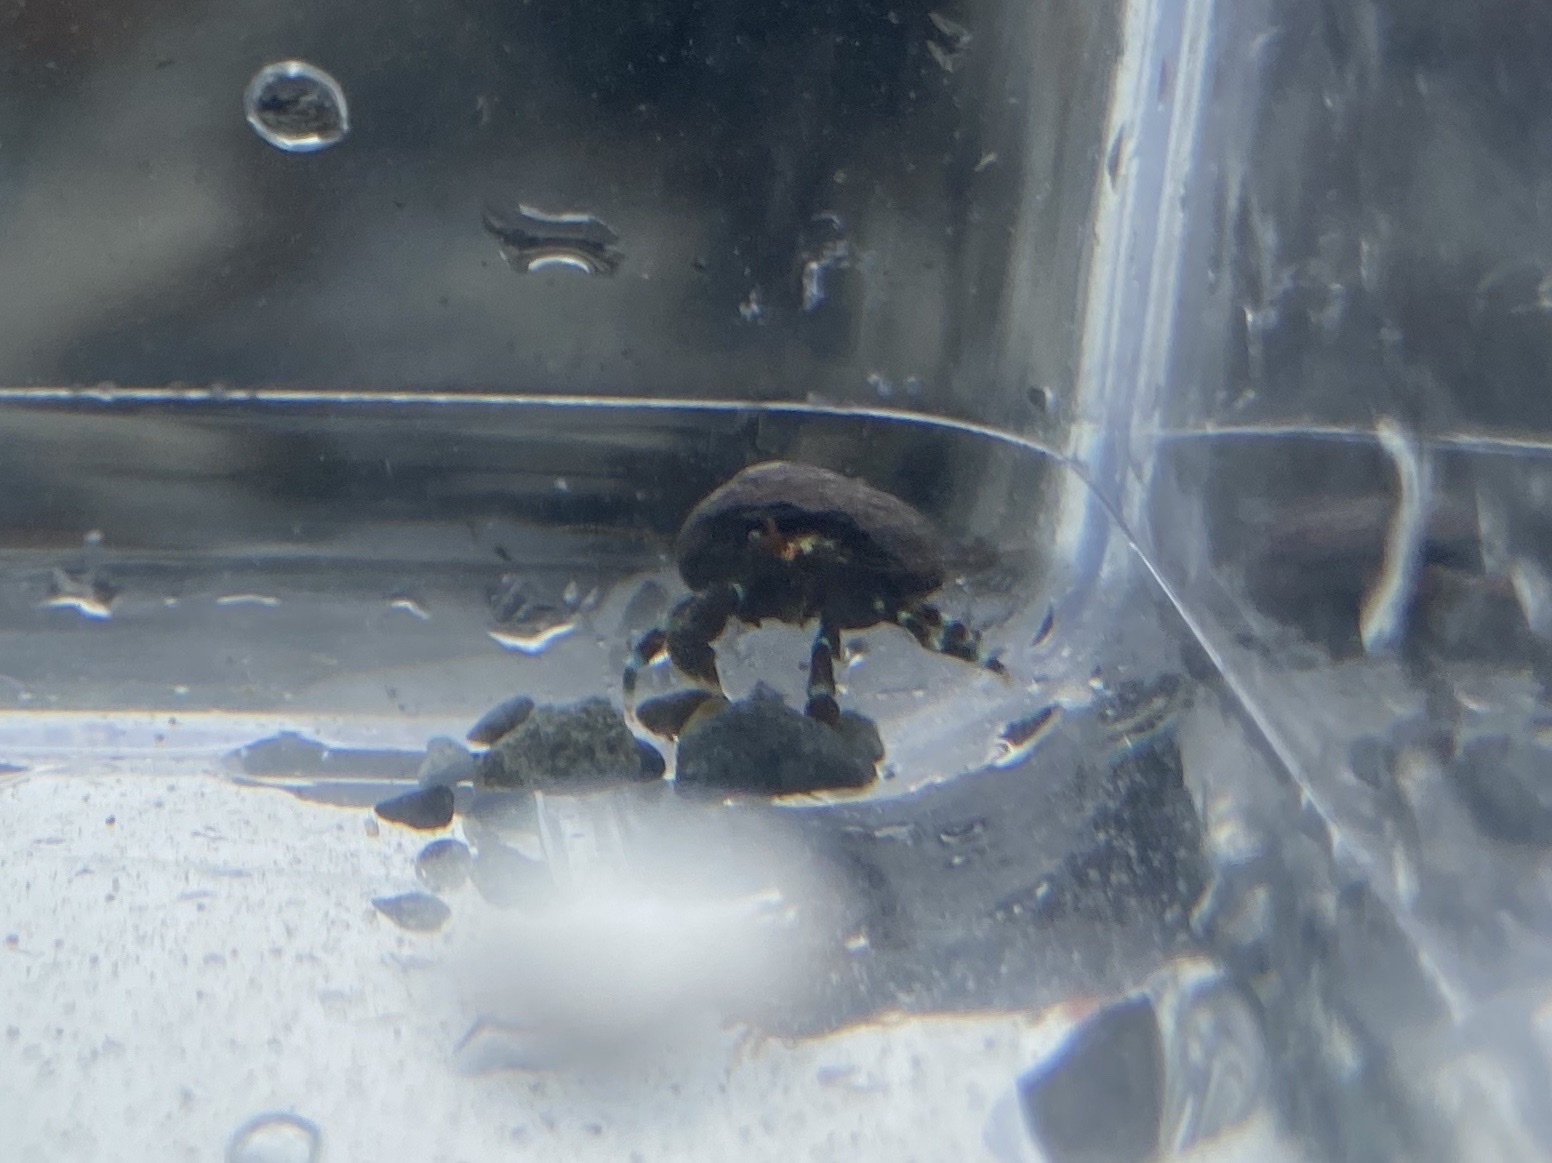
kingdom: Animalia
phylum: Arthropoda
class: Malacostraca
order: Decapoda
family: Paguridae
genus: Pagurus
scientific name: Pagurus samuelis
